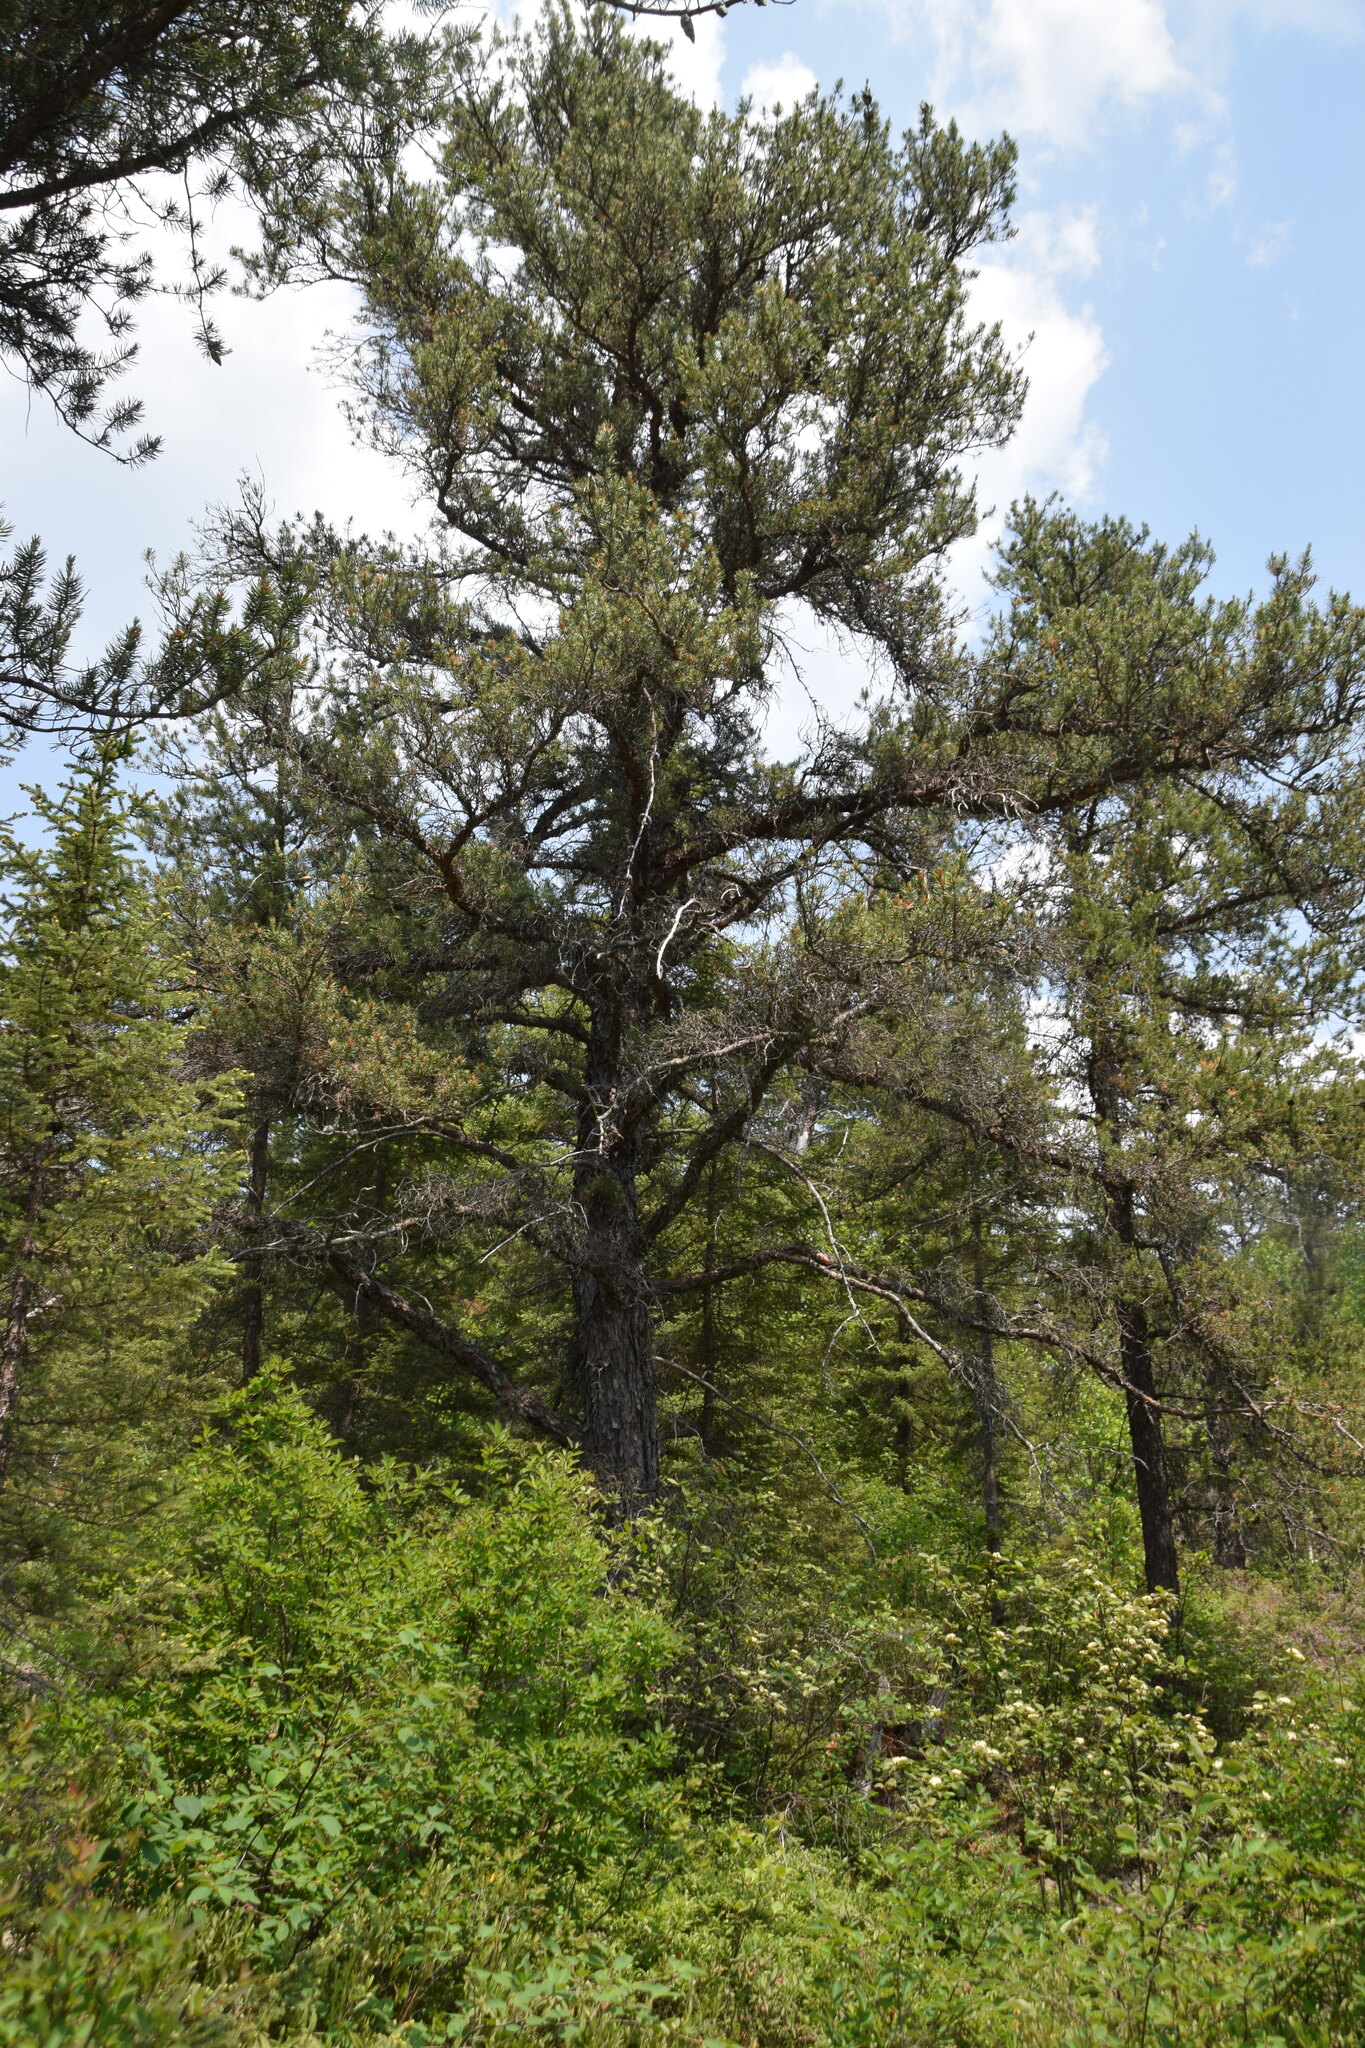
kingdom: Plantae
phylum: Tracheophyta
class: Pinopsida
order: Pinales
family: Pinaceae
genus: Pinus
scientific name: Pinus banksiana
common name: Jack pine
